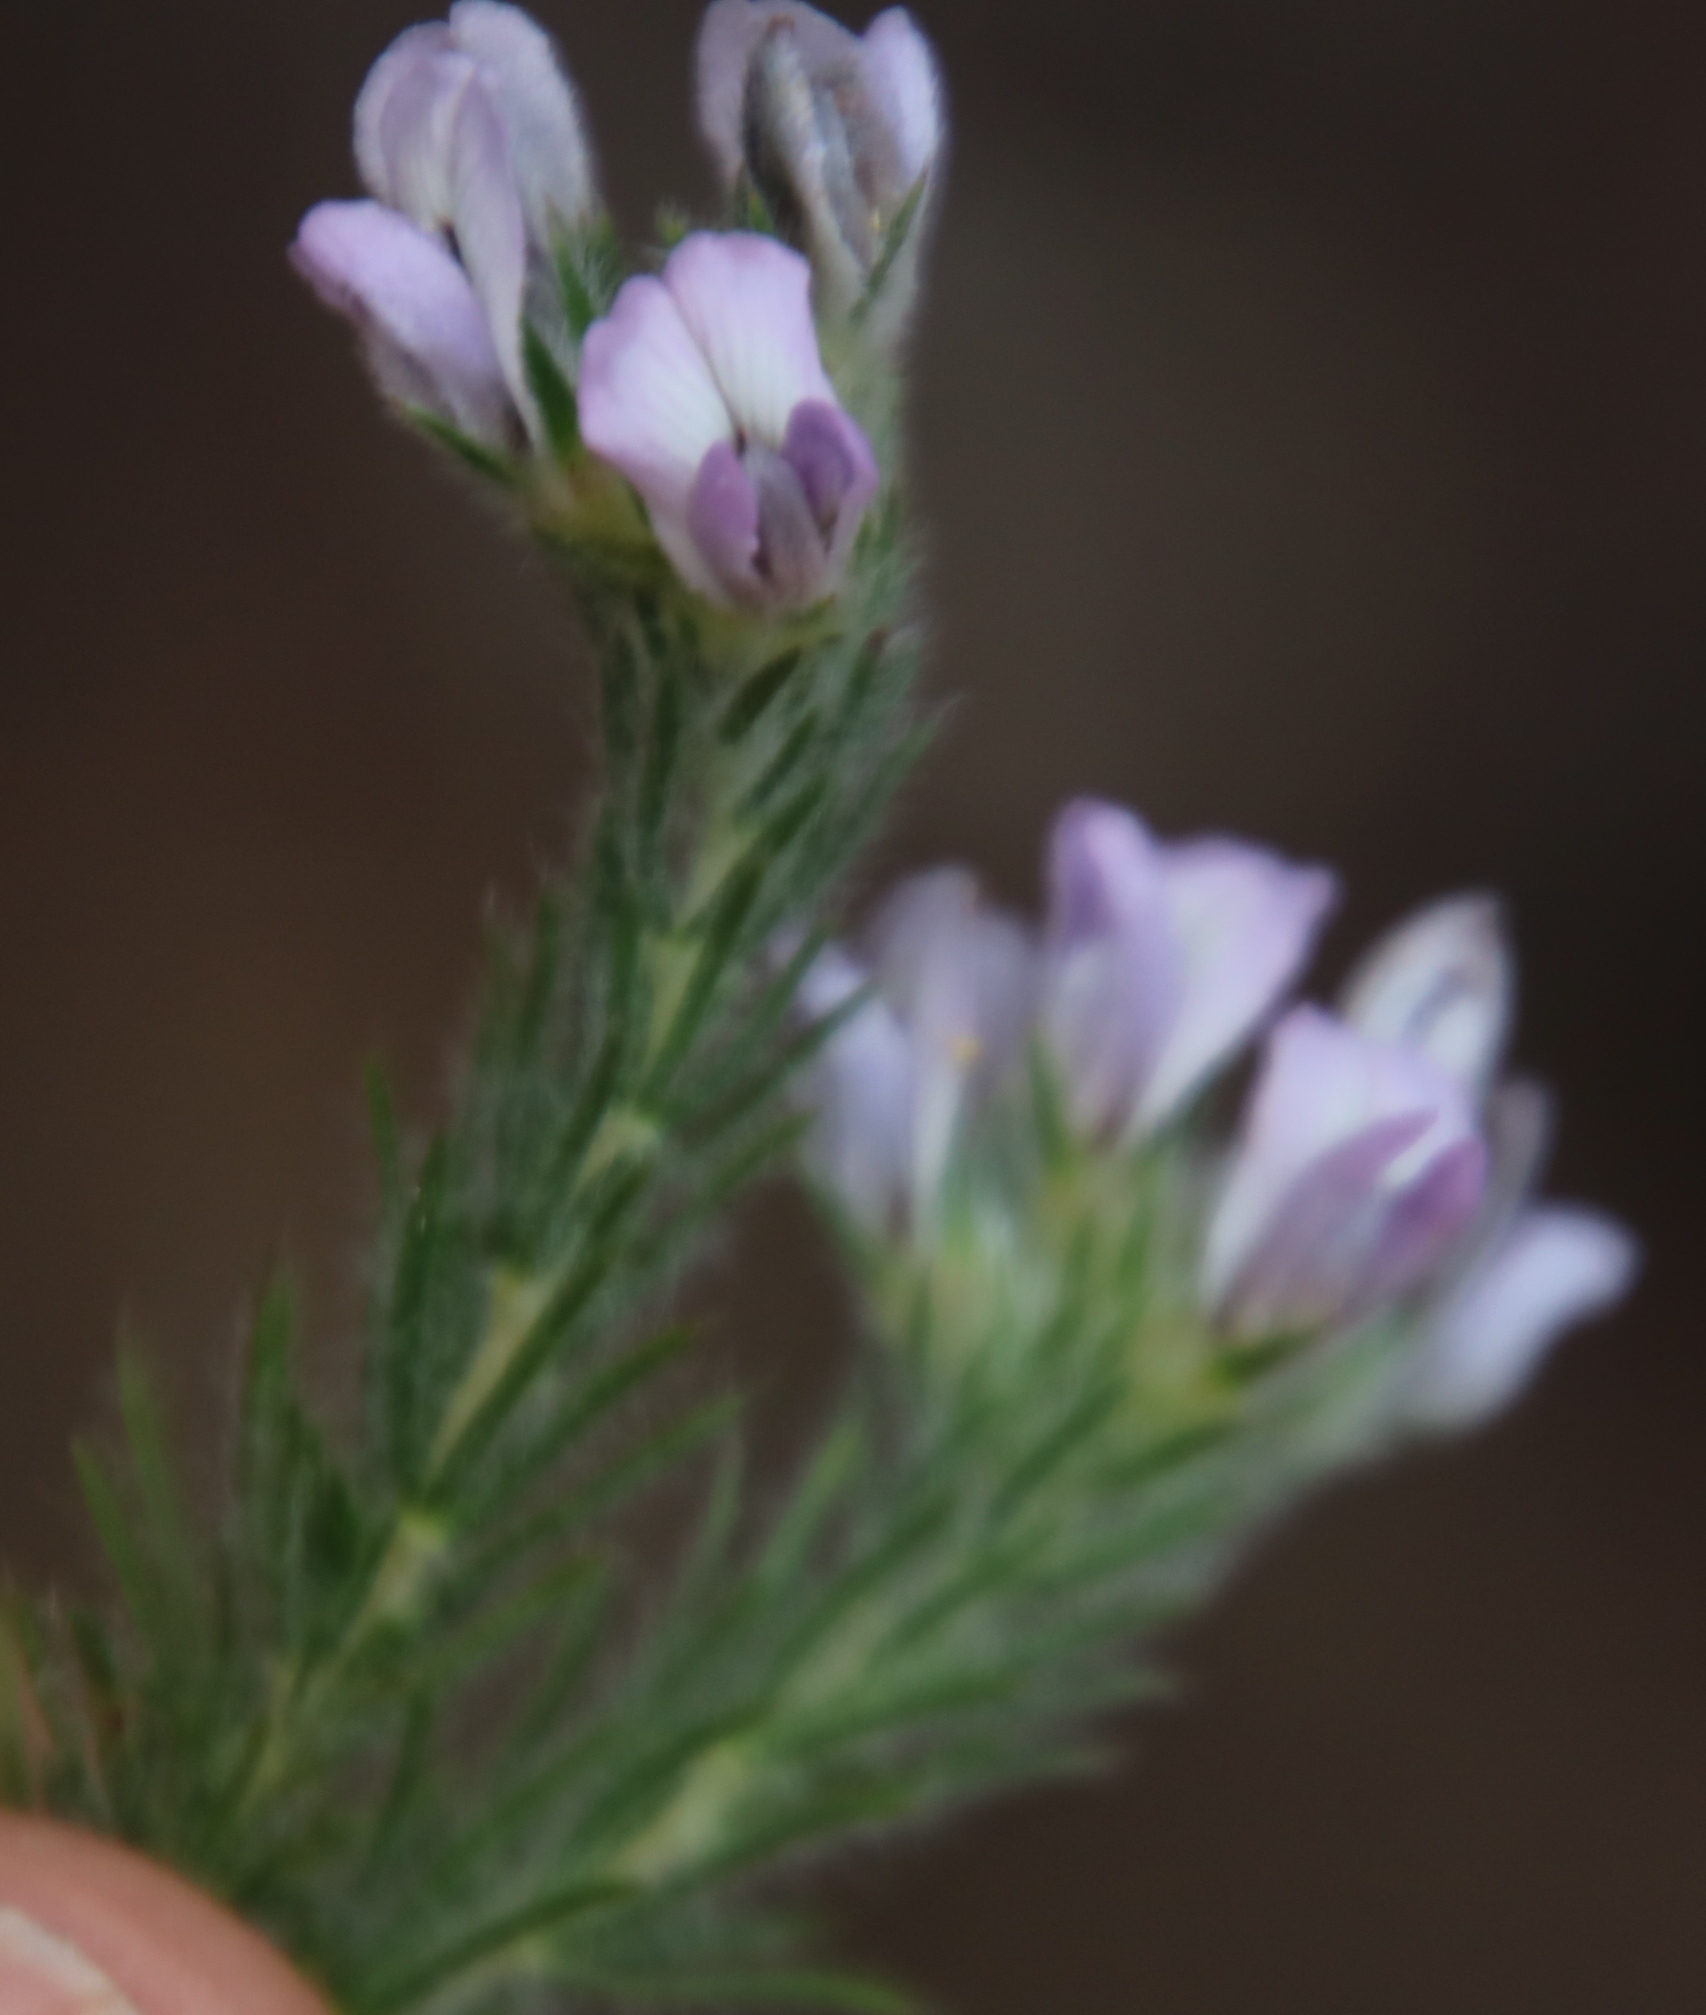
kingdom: Plantae
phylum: Tracheophyta
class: Magnoliopsida
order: Fabales
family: Fabaceae
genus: Aspalathus
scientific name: Aspalathus cephalotes
